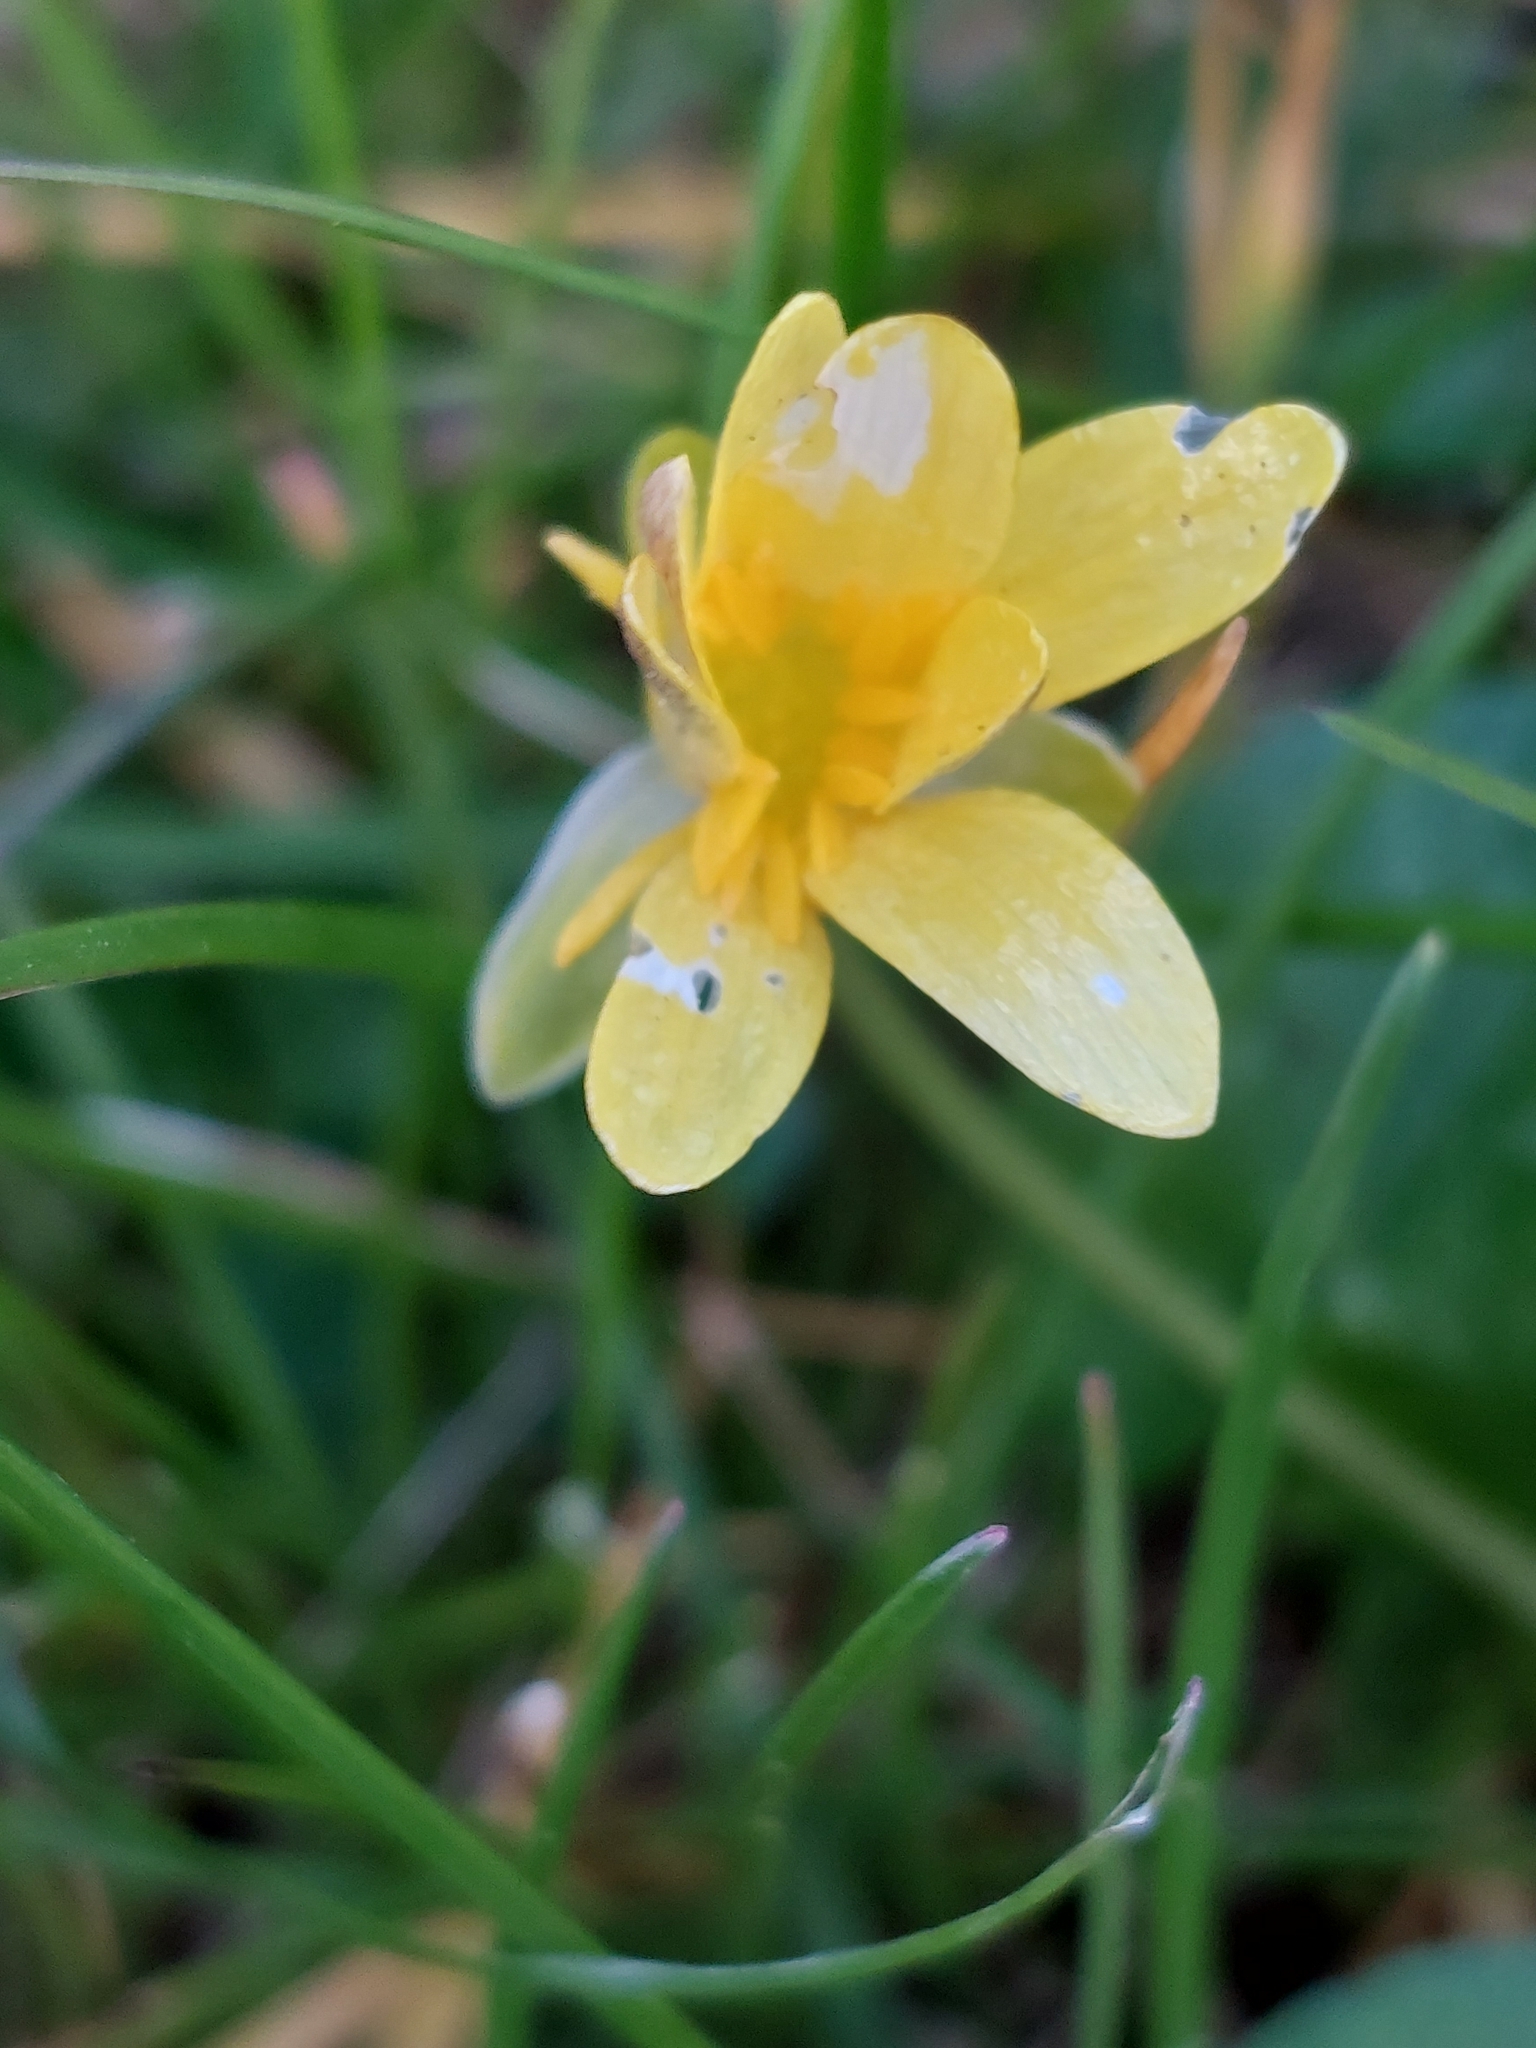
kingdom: Plantae
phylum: Tracheophyta
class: Magnoliopsida
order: Ranunculales
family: Ranunculaceae
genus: Ficaria
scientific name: Ficaria verna
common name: Lesser celandine
